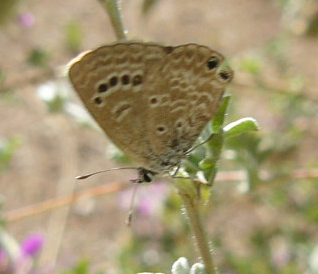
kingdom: Animalia
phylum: Arthropoda
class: Insecta
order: Lepidoptera
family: Lycaenidae
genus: Echinargus
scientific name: Echinargus isola
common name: Reakirt's blue
